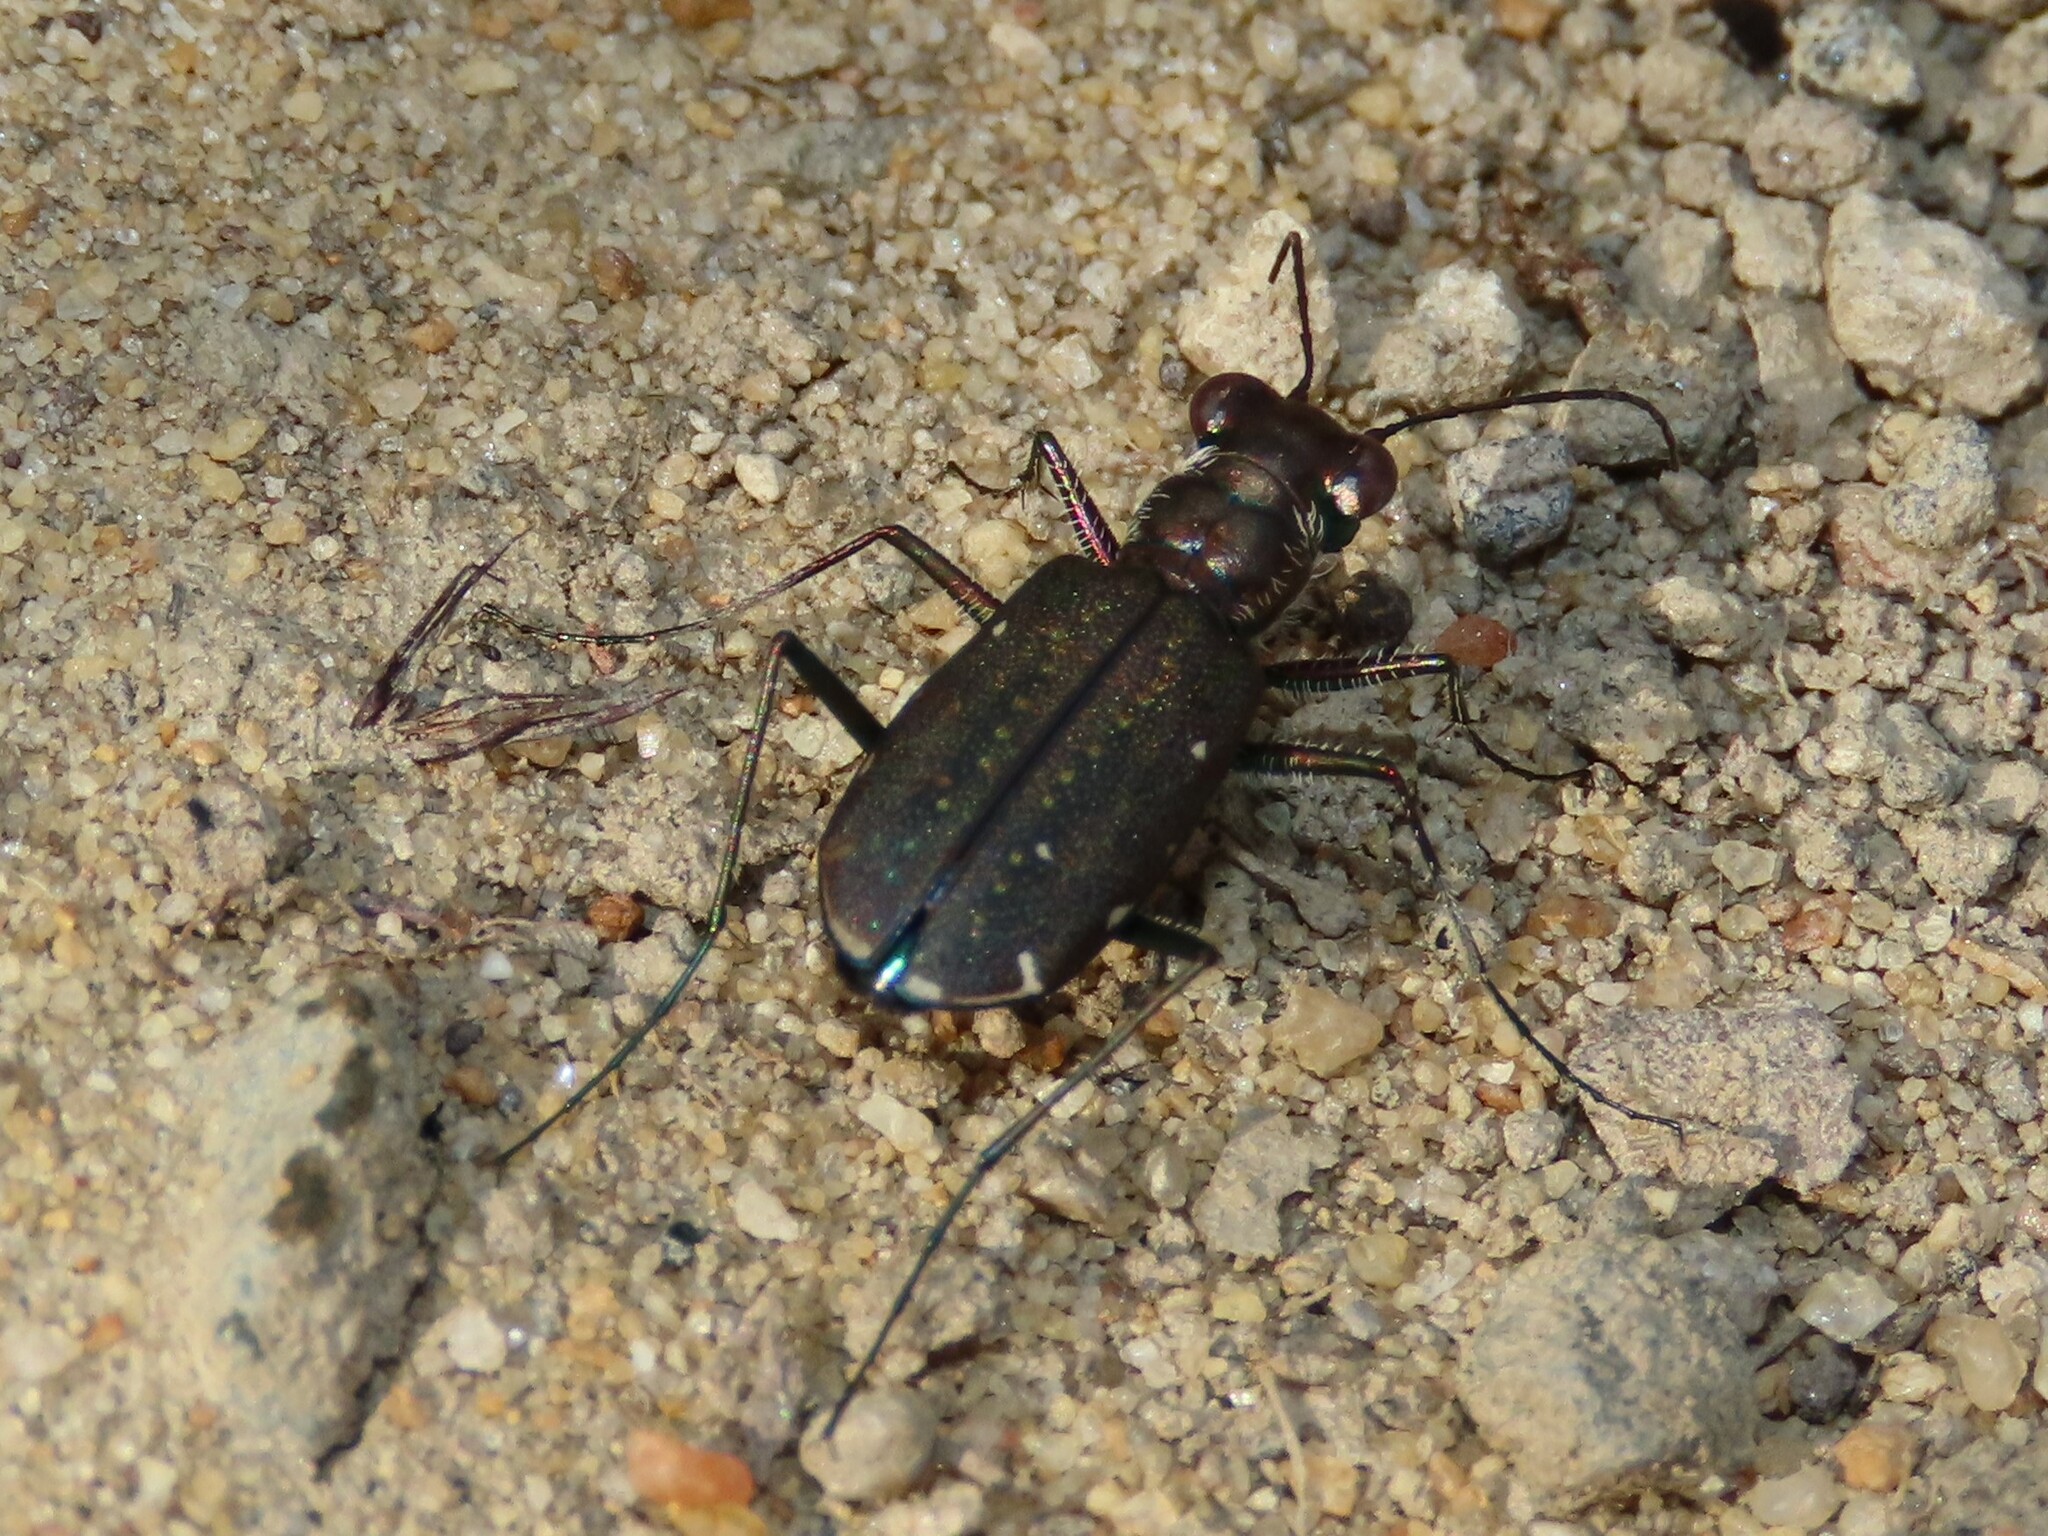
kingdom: Animalia
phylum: Arthropoda
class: Insecta
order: Coleoptera
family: Carabidae
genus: Cicindela
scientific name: Cicindela punctulata
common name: Punctured tiger beetle
